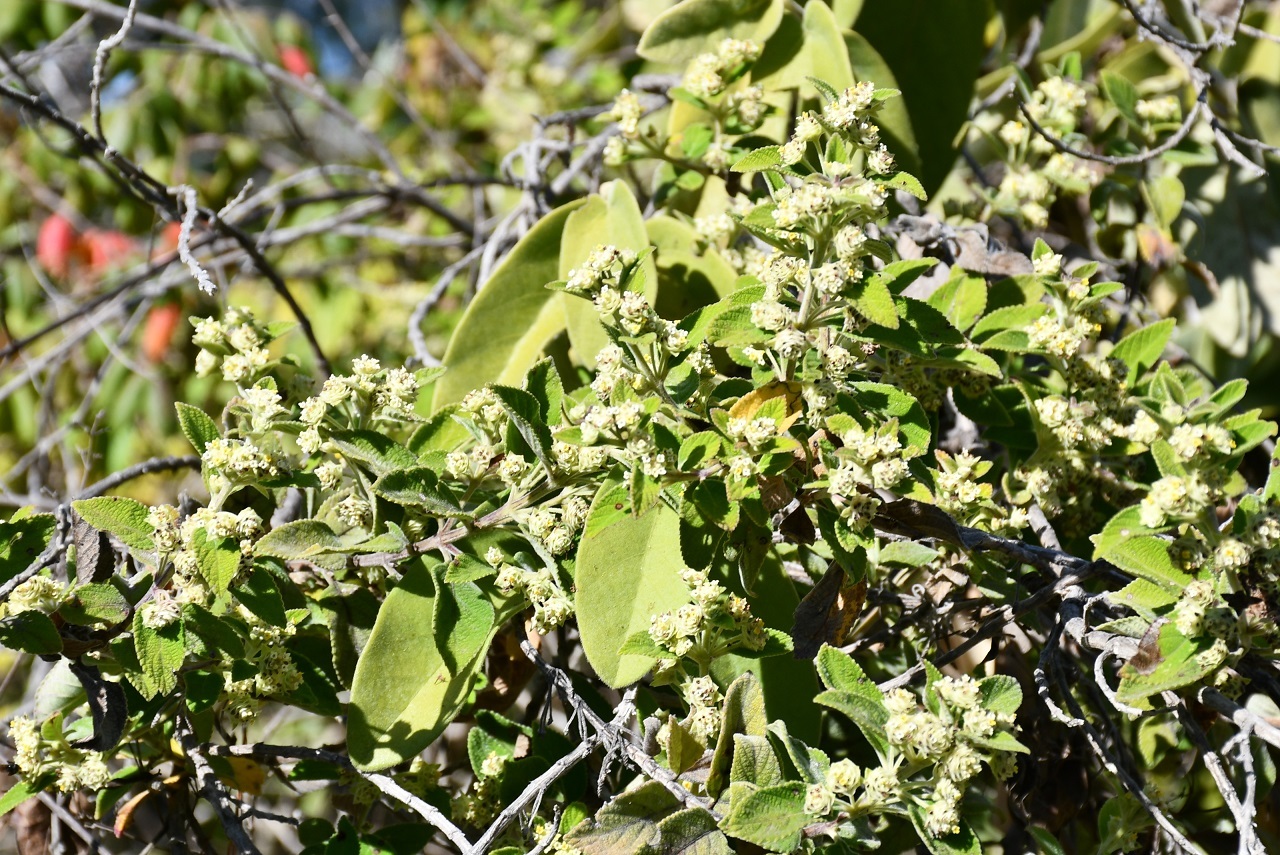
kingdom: Plantae
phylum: Tracheophyta
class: Magnoliopsida
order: Lamiales
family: Verbenaceae
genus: Lippia
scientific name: Lippia origanoides
